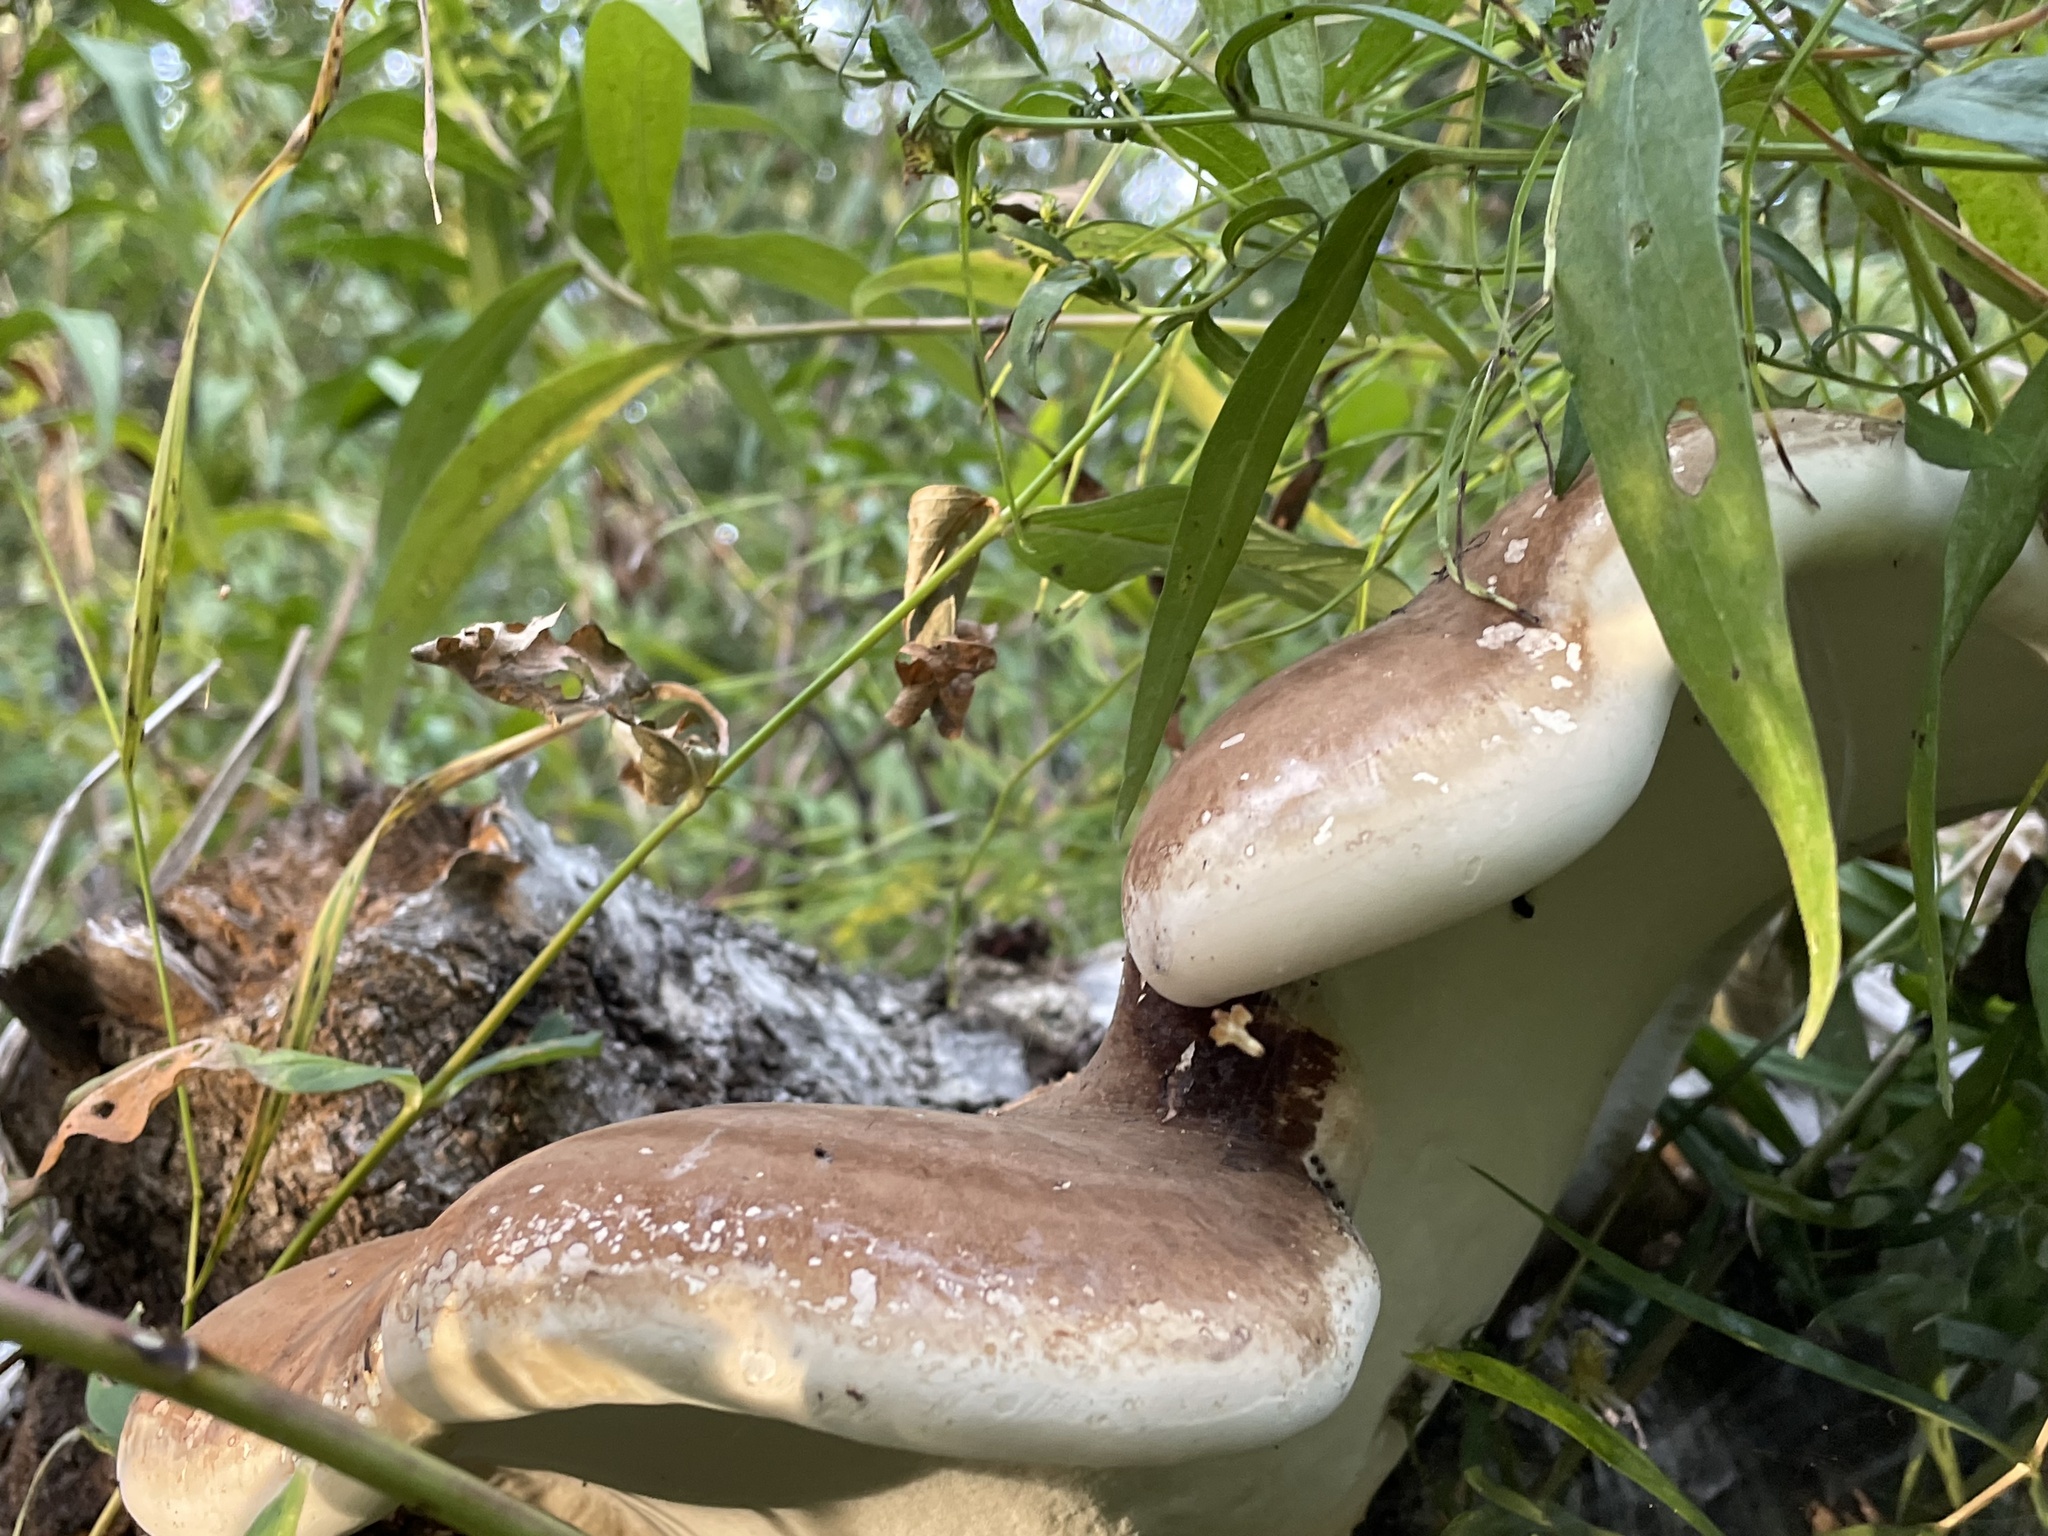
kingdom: Fungi
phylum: Basidiomycota
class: Agaricomycetes
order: Polyporales
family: Fomitopsidaceae
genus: Fomitopsis
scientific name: Fomitopsis betulina
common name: Birch polypore
